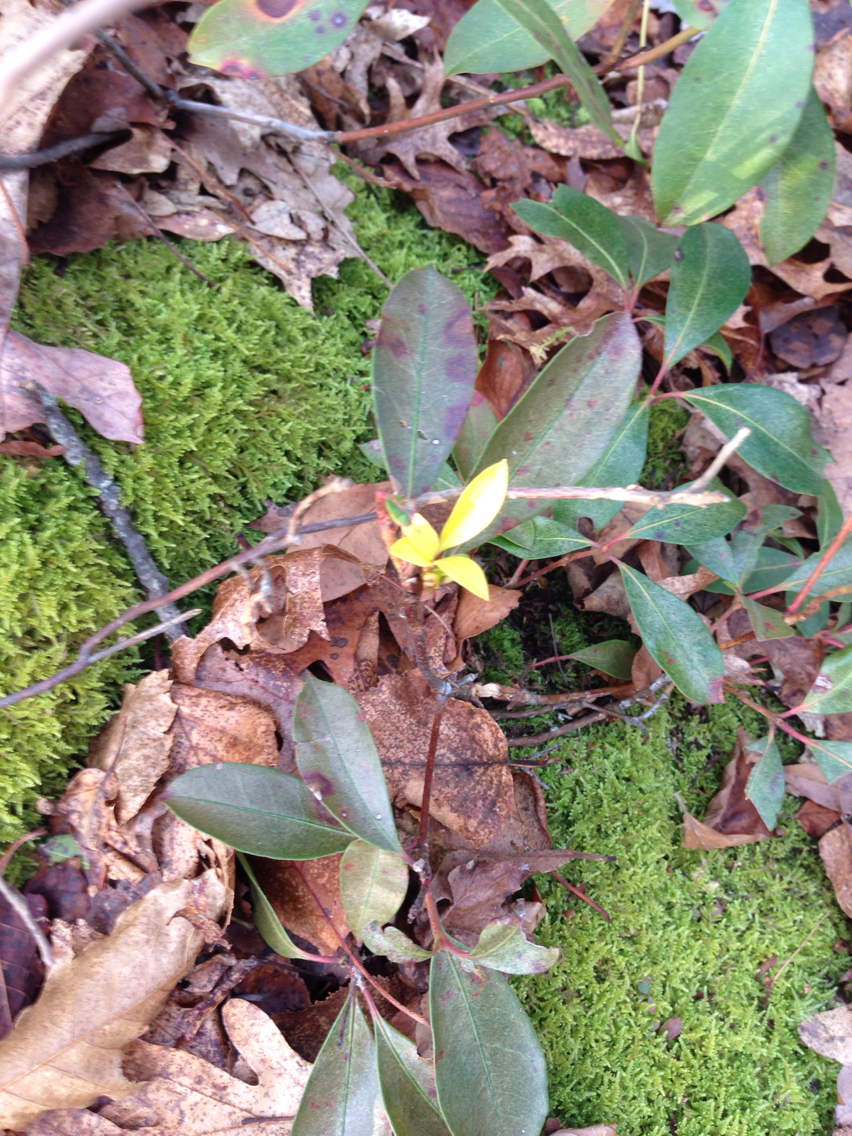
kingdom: Plantae
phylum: Tracheophyta
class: Magnoliopsida
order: Ericales
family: Ericaceae
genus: Kalmia
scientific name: Kalmia latifolia
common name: Mountain-laurel
